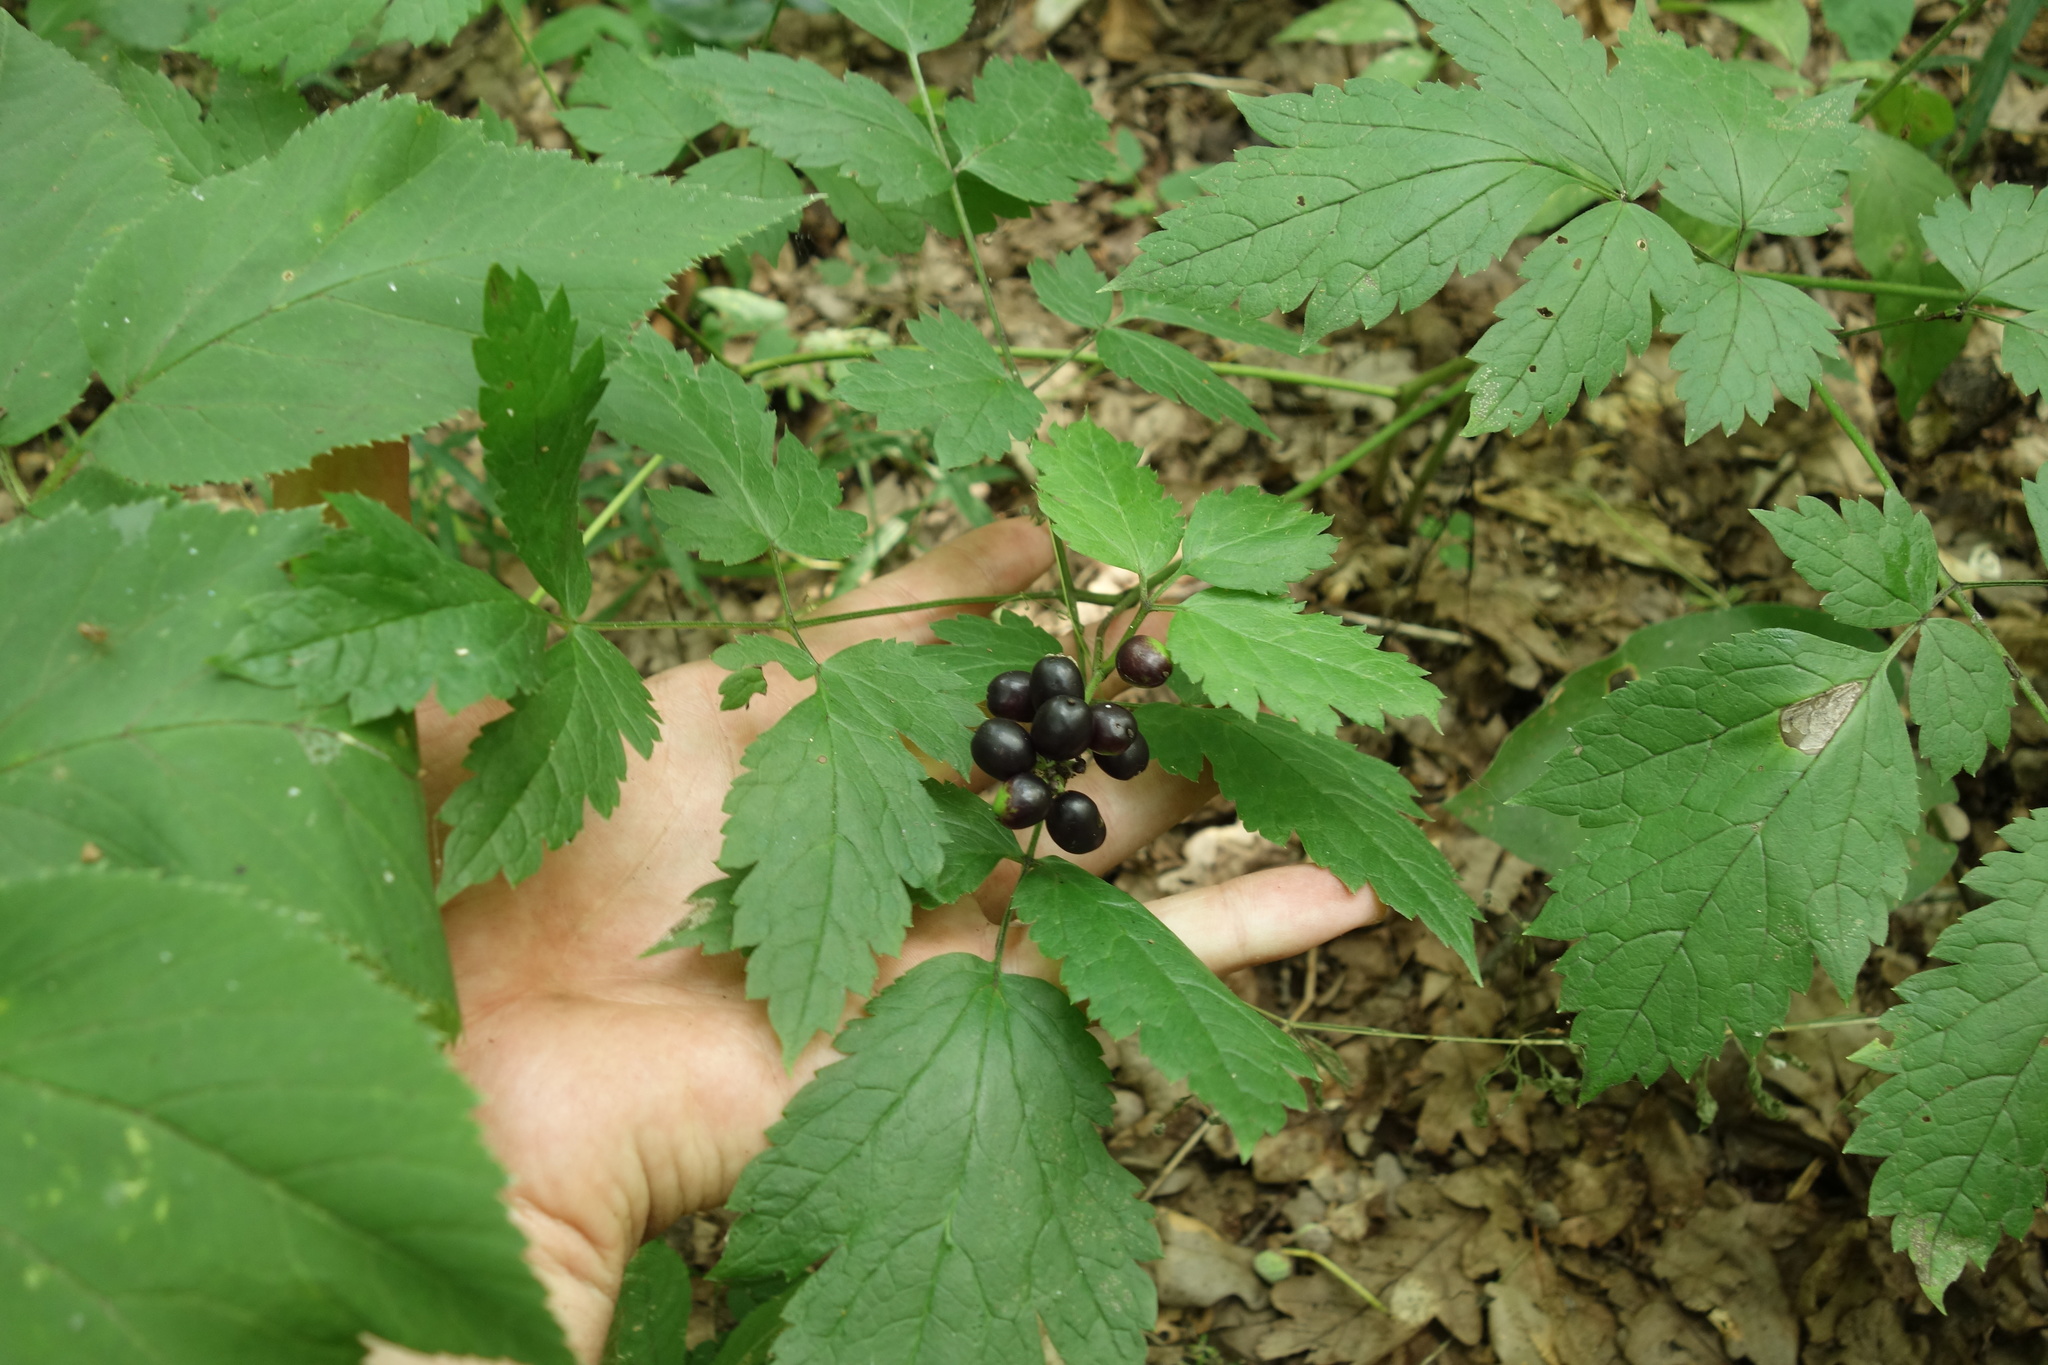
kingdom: Plantae
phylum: Tracheophyta
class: Magnoliopsida
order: Ranunculales
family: Ranunculaceae
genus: Actaea
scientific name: Actaea spicata
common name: Baneberry
